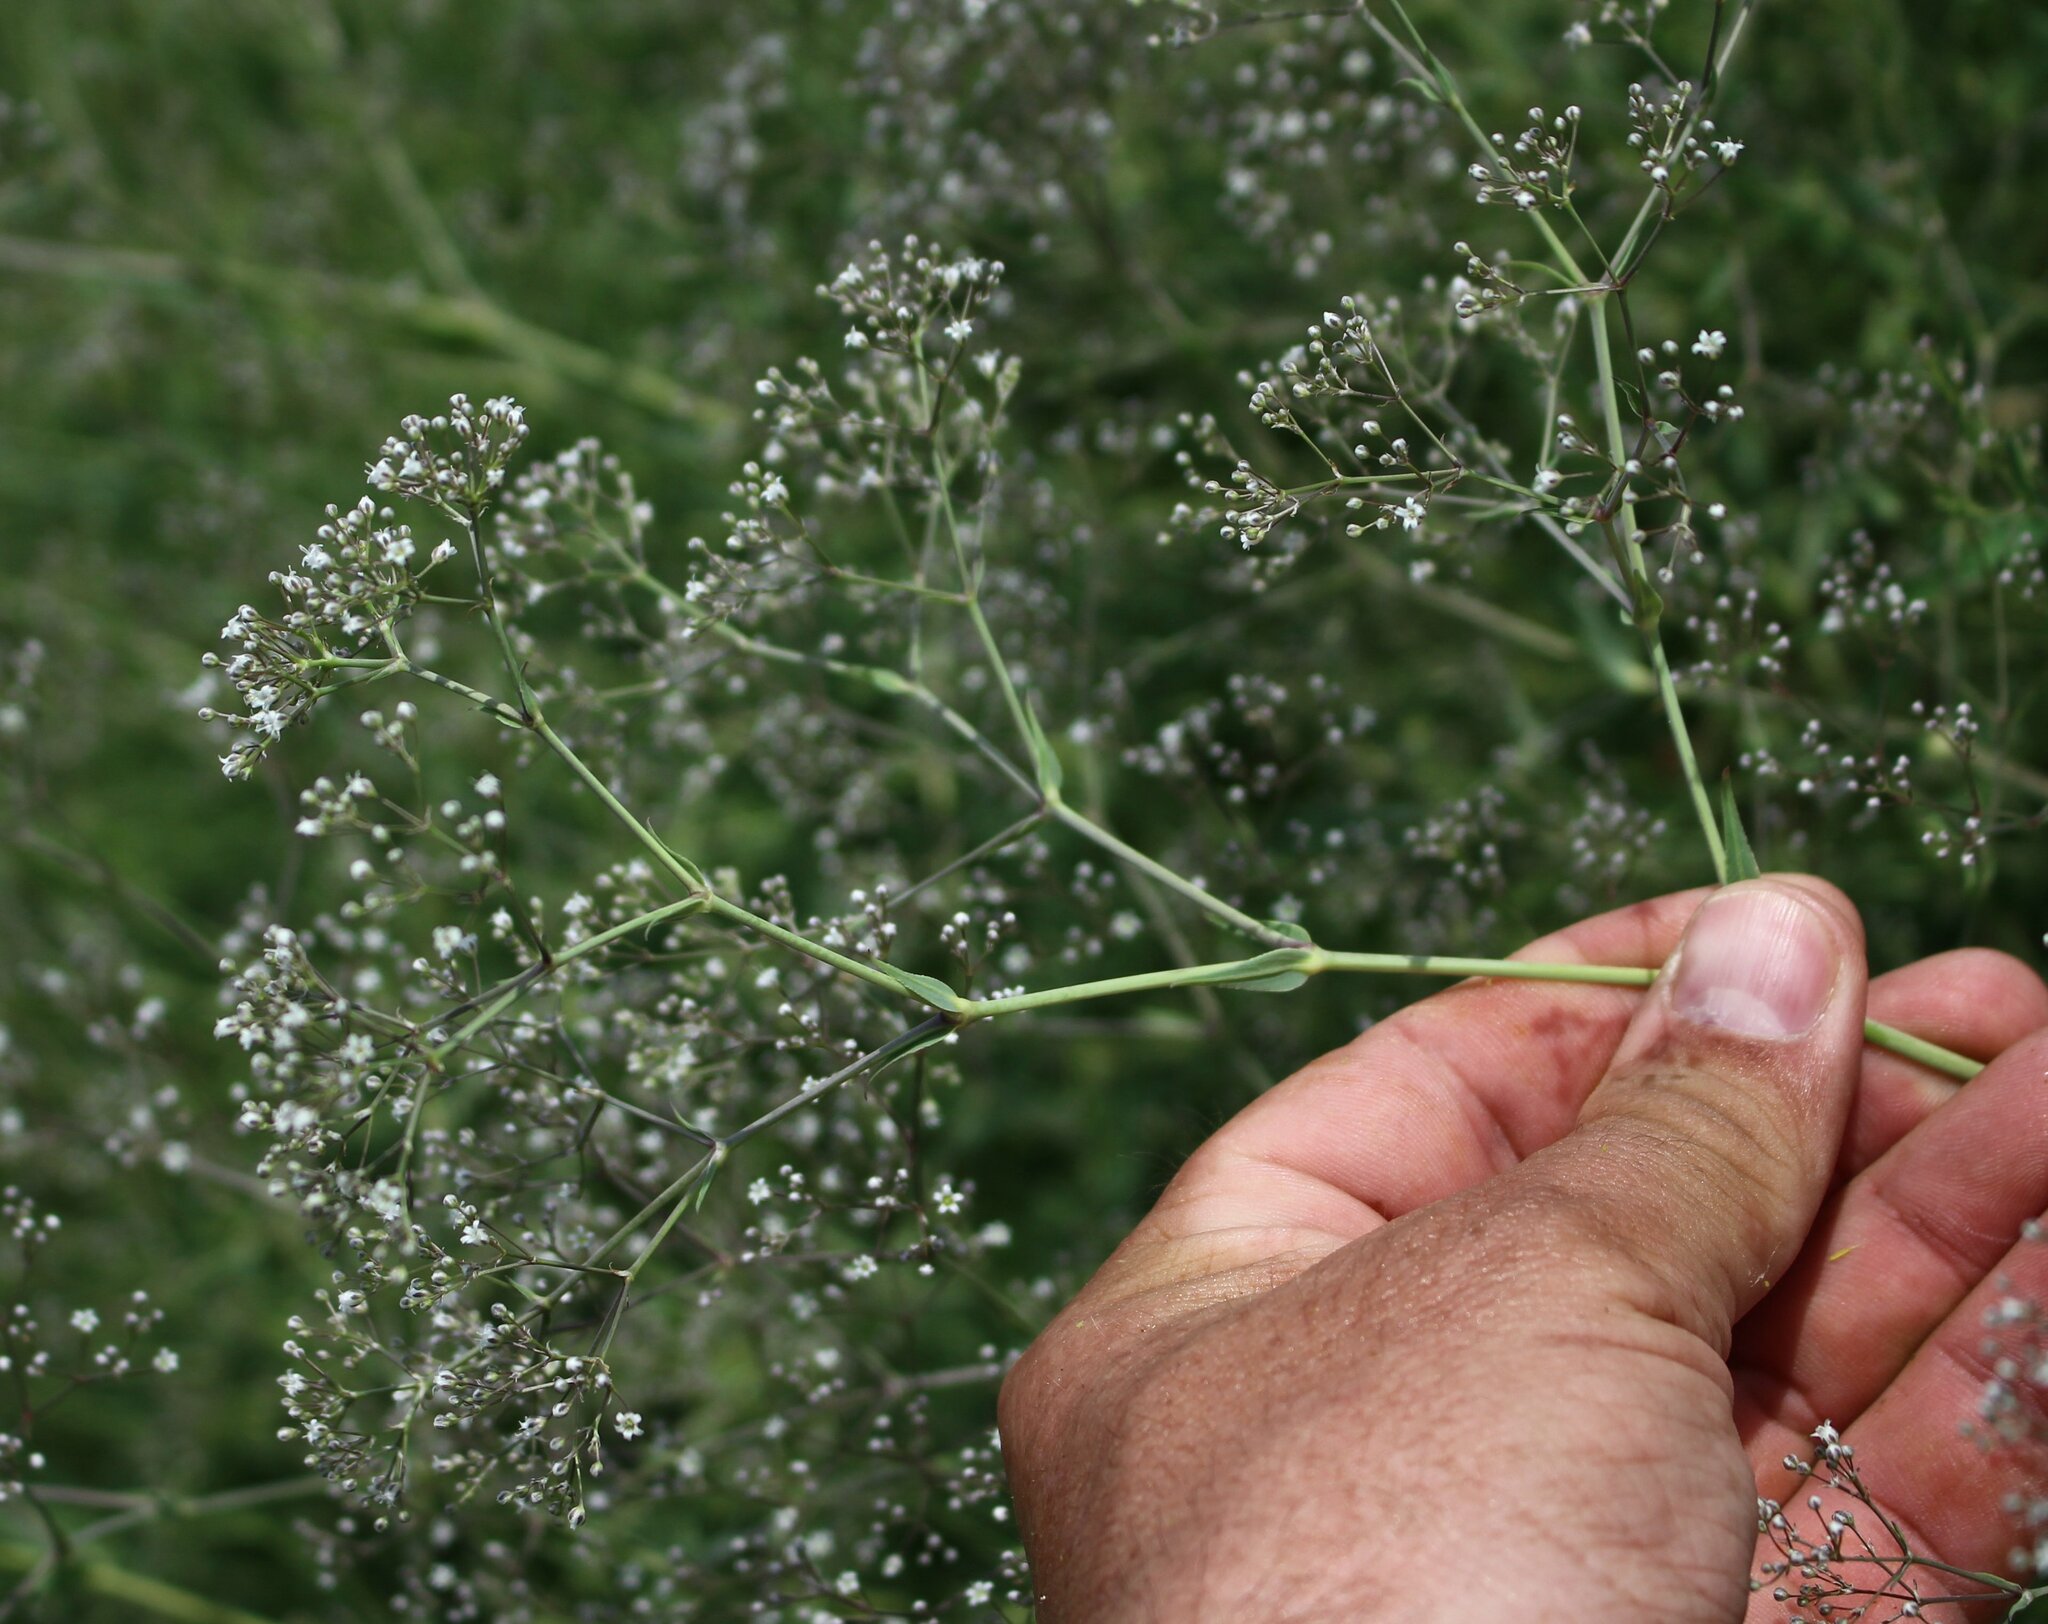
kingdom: Plantae
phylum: Tracheophyta
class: Magnoliopsida
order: Caryophyllales
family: Caryophyllaceae
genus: Gypsophila
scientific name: Gypsophila paniculata
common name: Baby's-breath
